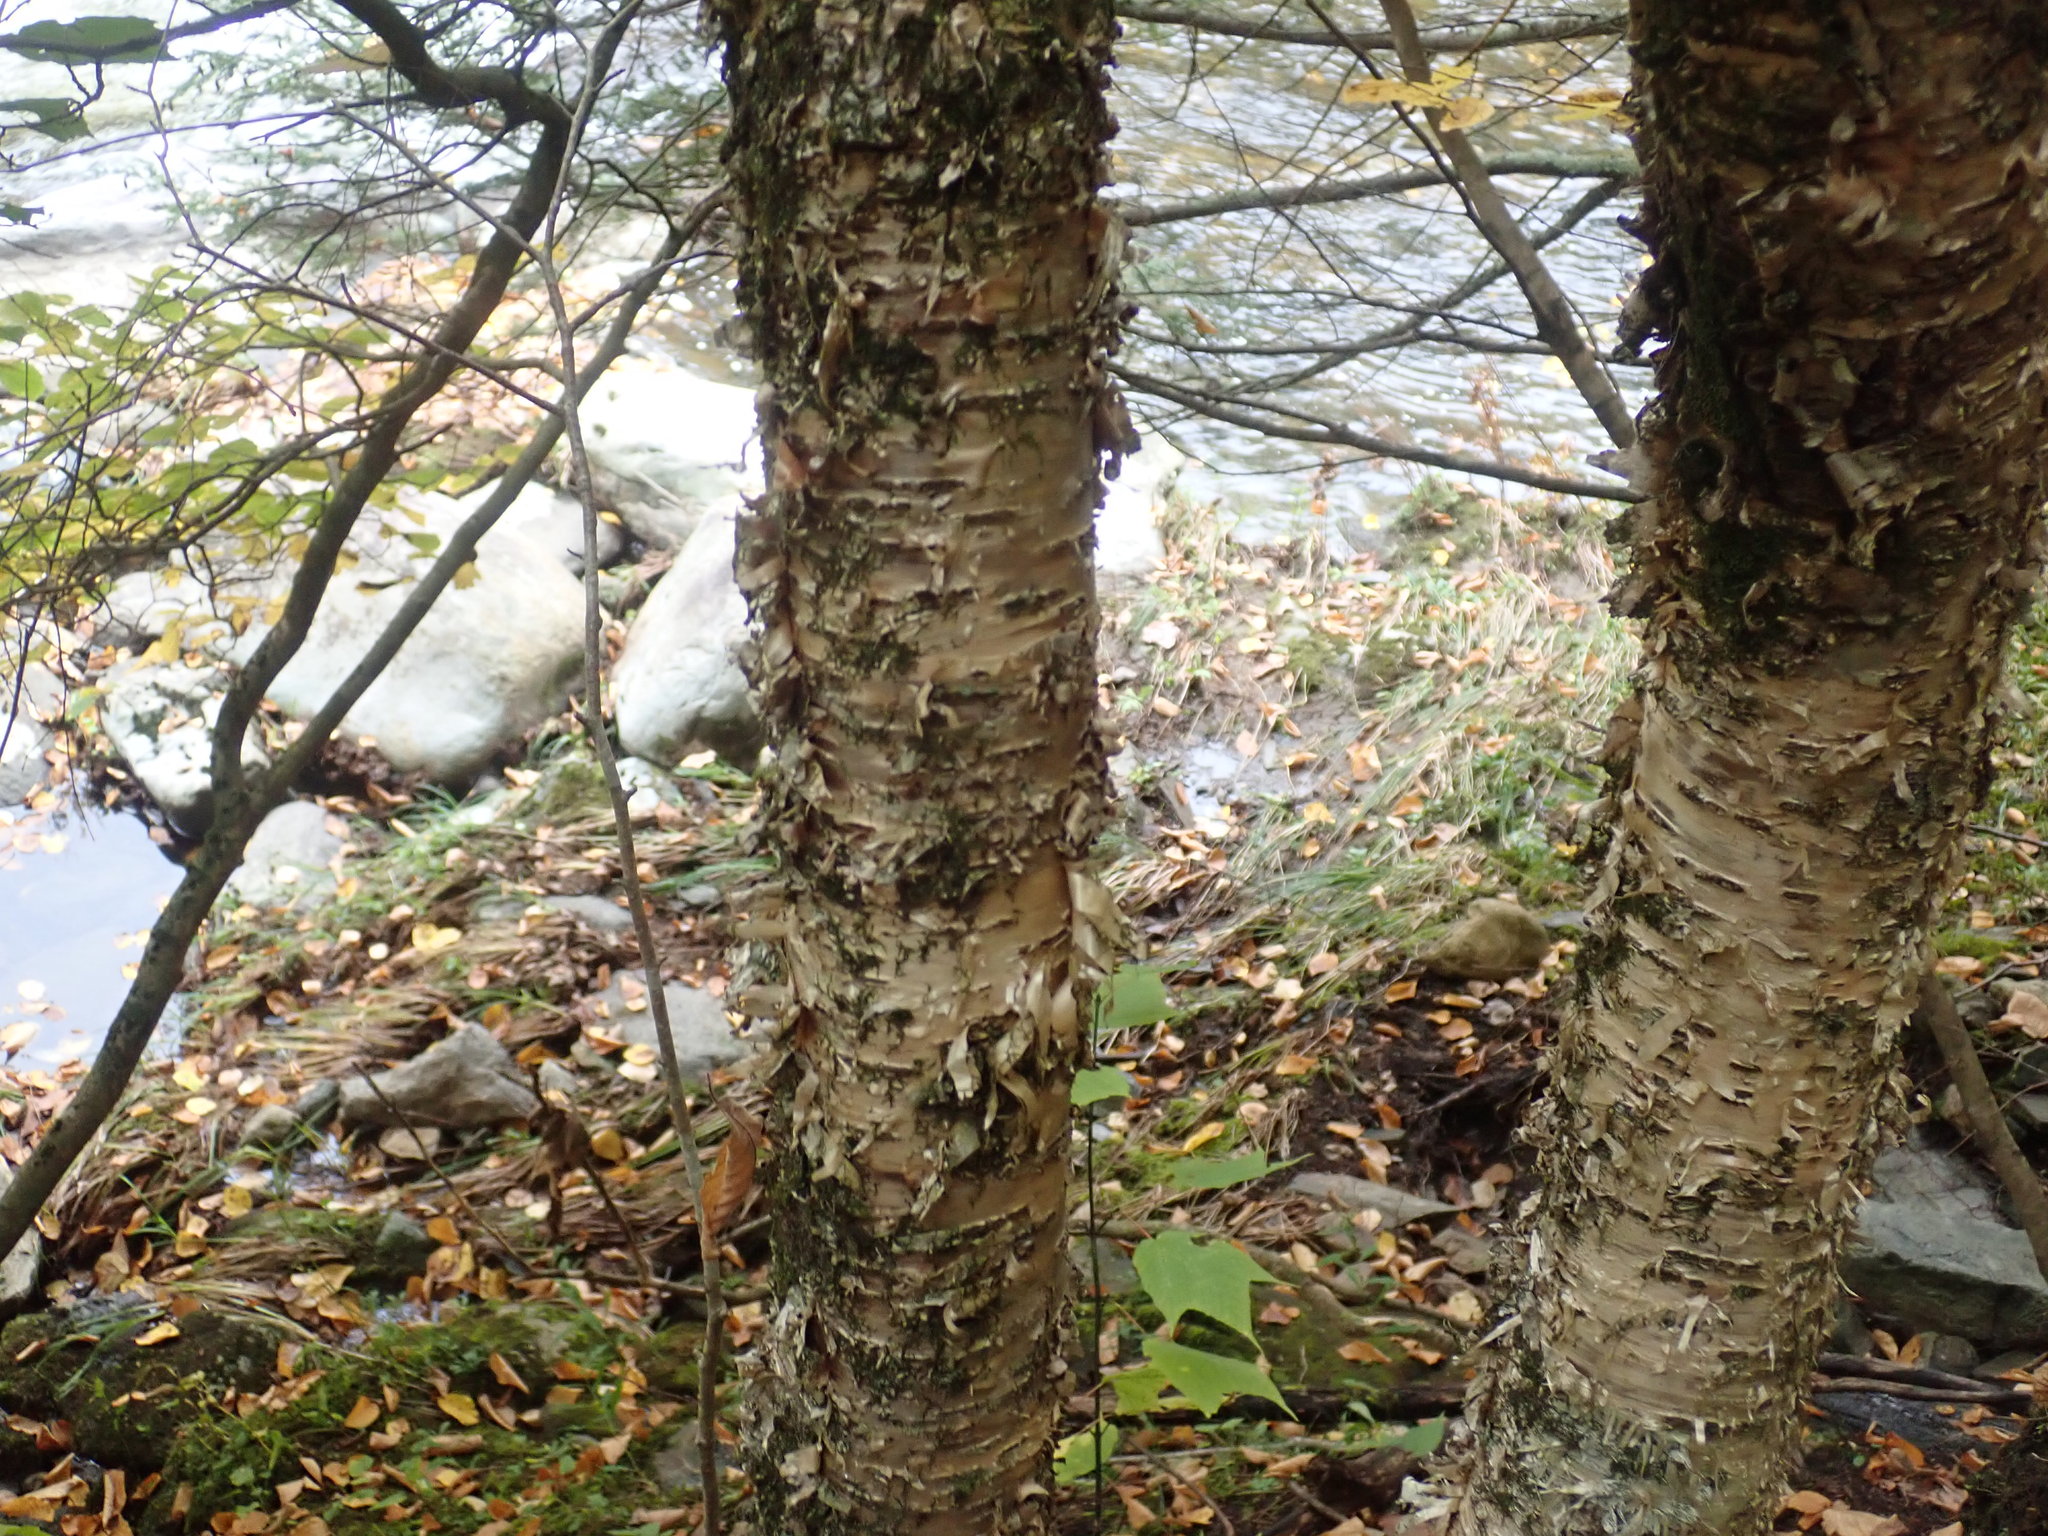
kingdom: Plantae
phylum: Tracheophyta
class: Magnoliopsida
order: Fagales
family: Betulaceae
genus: Betula
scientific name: Betula alleghaniensis
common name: Yellow birch
